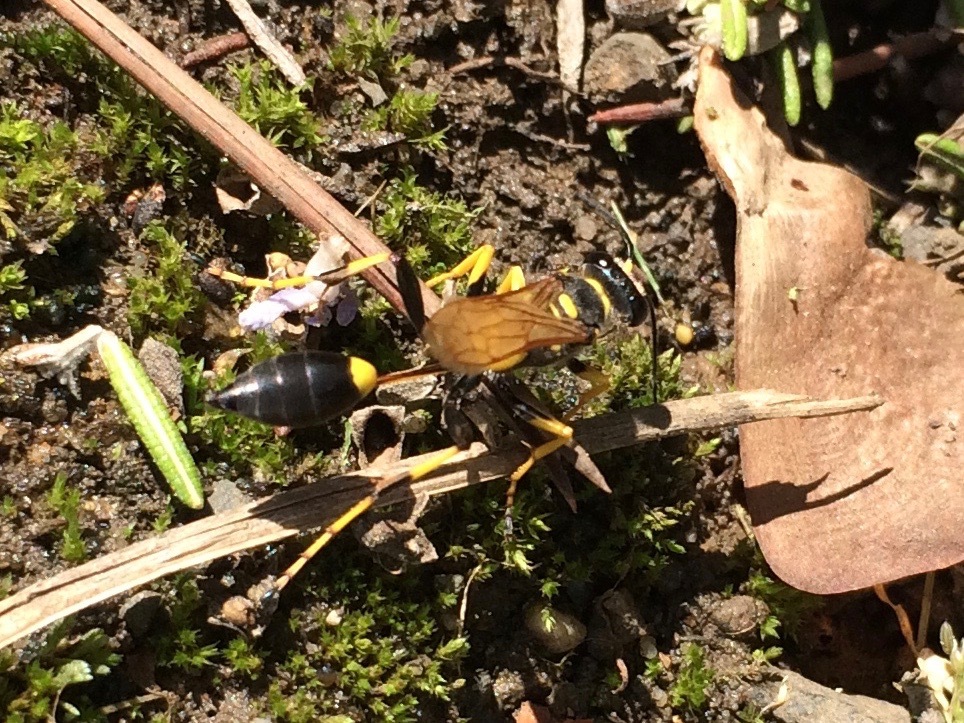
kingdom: Animalia
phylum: Arthropoda
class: Insecta
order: Hymenoptera
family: Sphecidae
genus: Sceliphron
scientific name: Sceliphron caementarium
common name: Mud dauber
